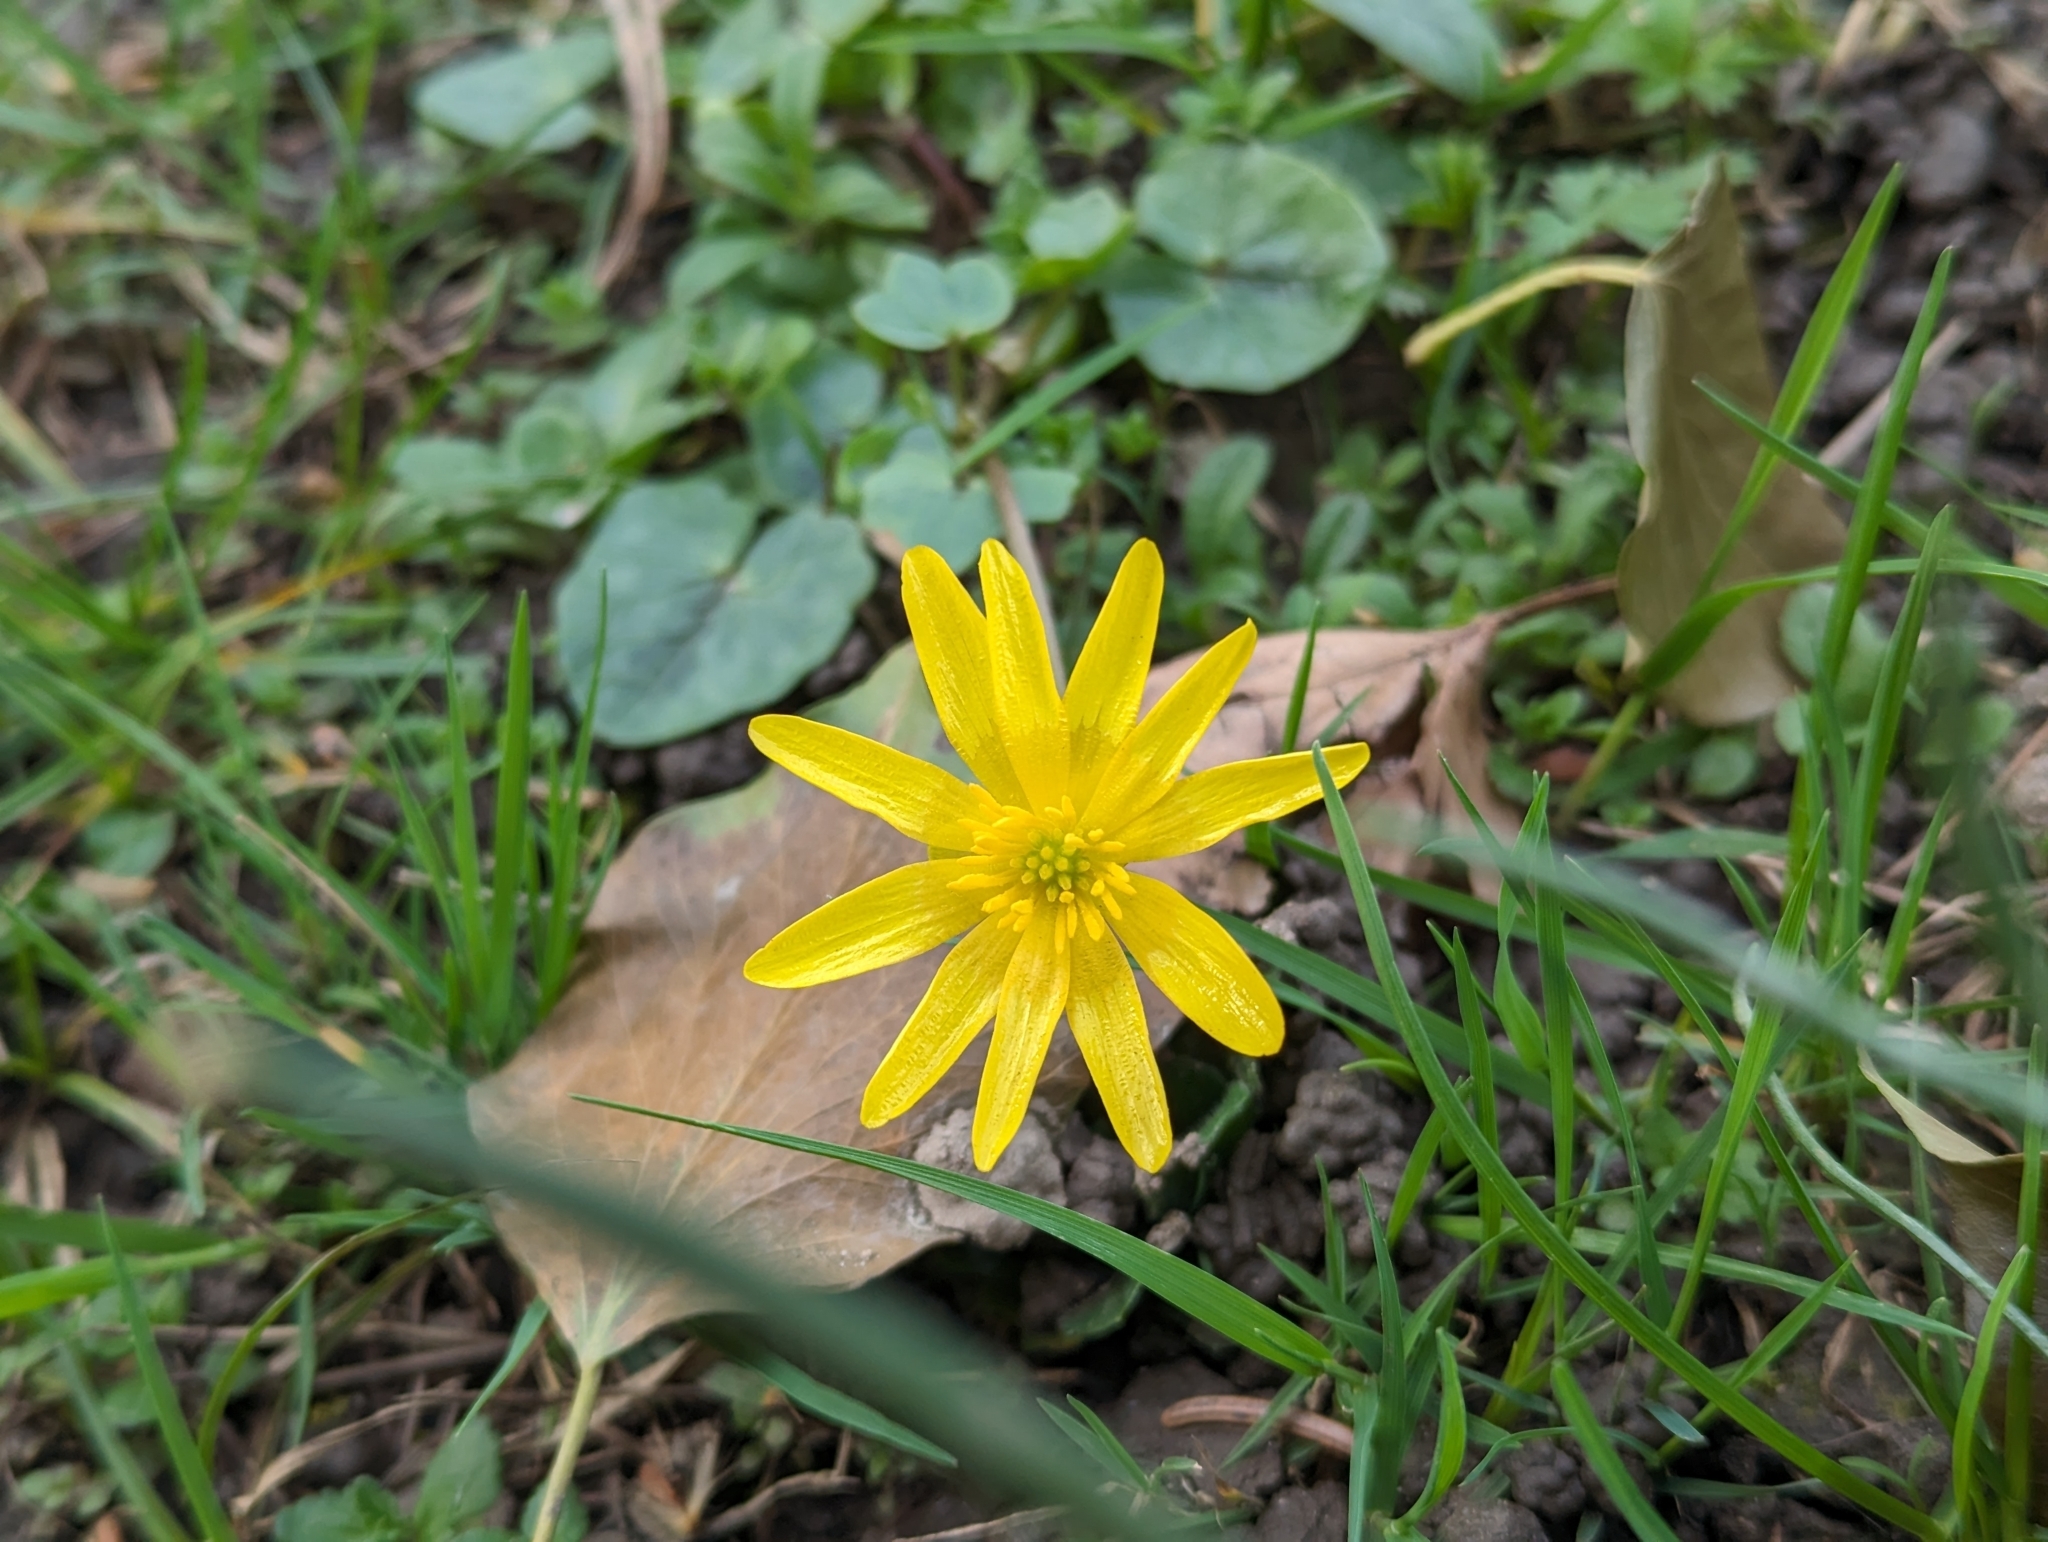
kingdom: Plantae
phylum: Tracheophyta
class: Magnoliopsida
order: Ranunculales
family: Ranunculaceae
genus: Ficaria
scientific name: Ficaria verna
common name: Lesser celandine
